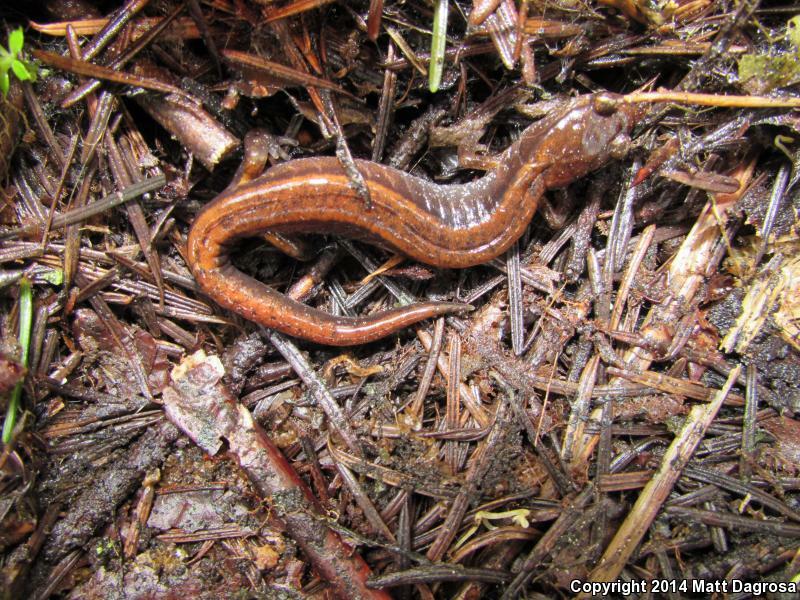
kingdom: Animalia
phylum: Chordata
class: Amphibia
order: Caudata
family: Plethodontidae
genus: Plethodon
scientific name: Plethodon vehiculum
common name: Western red-backed salamander
